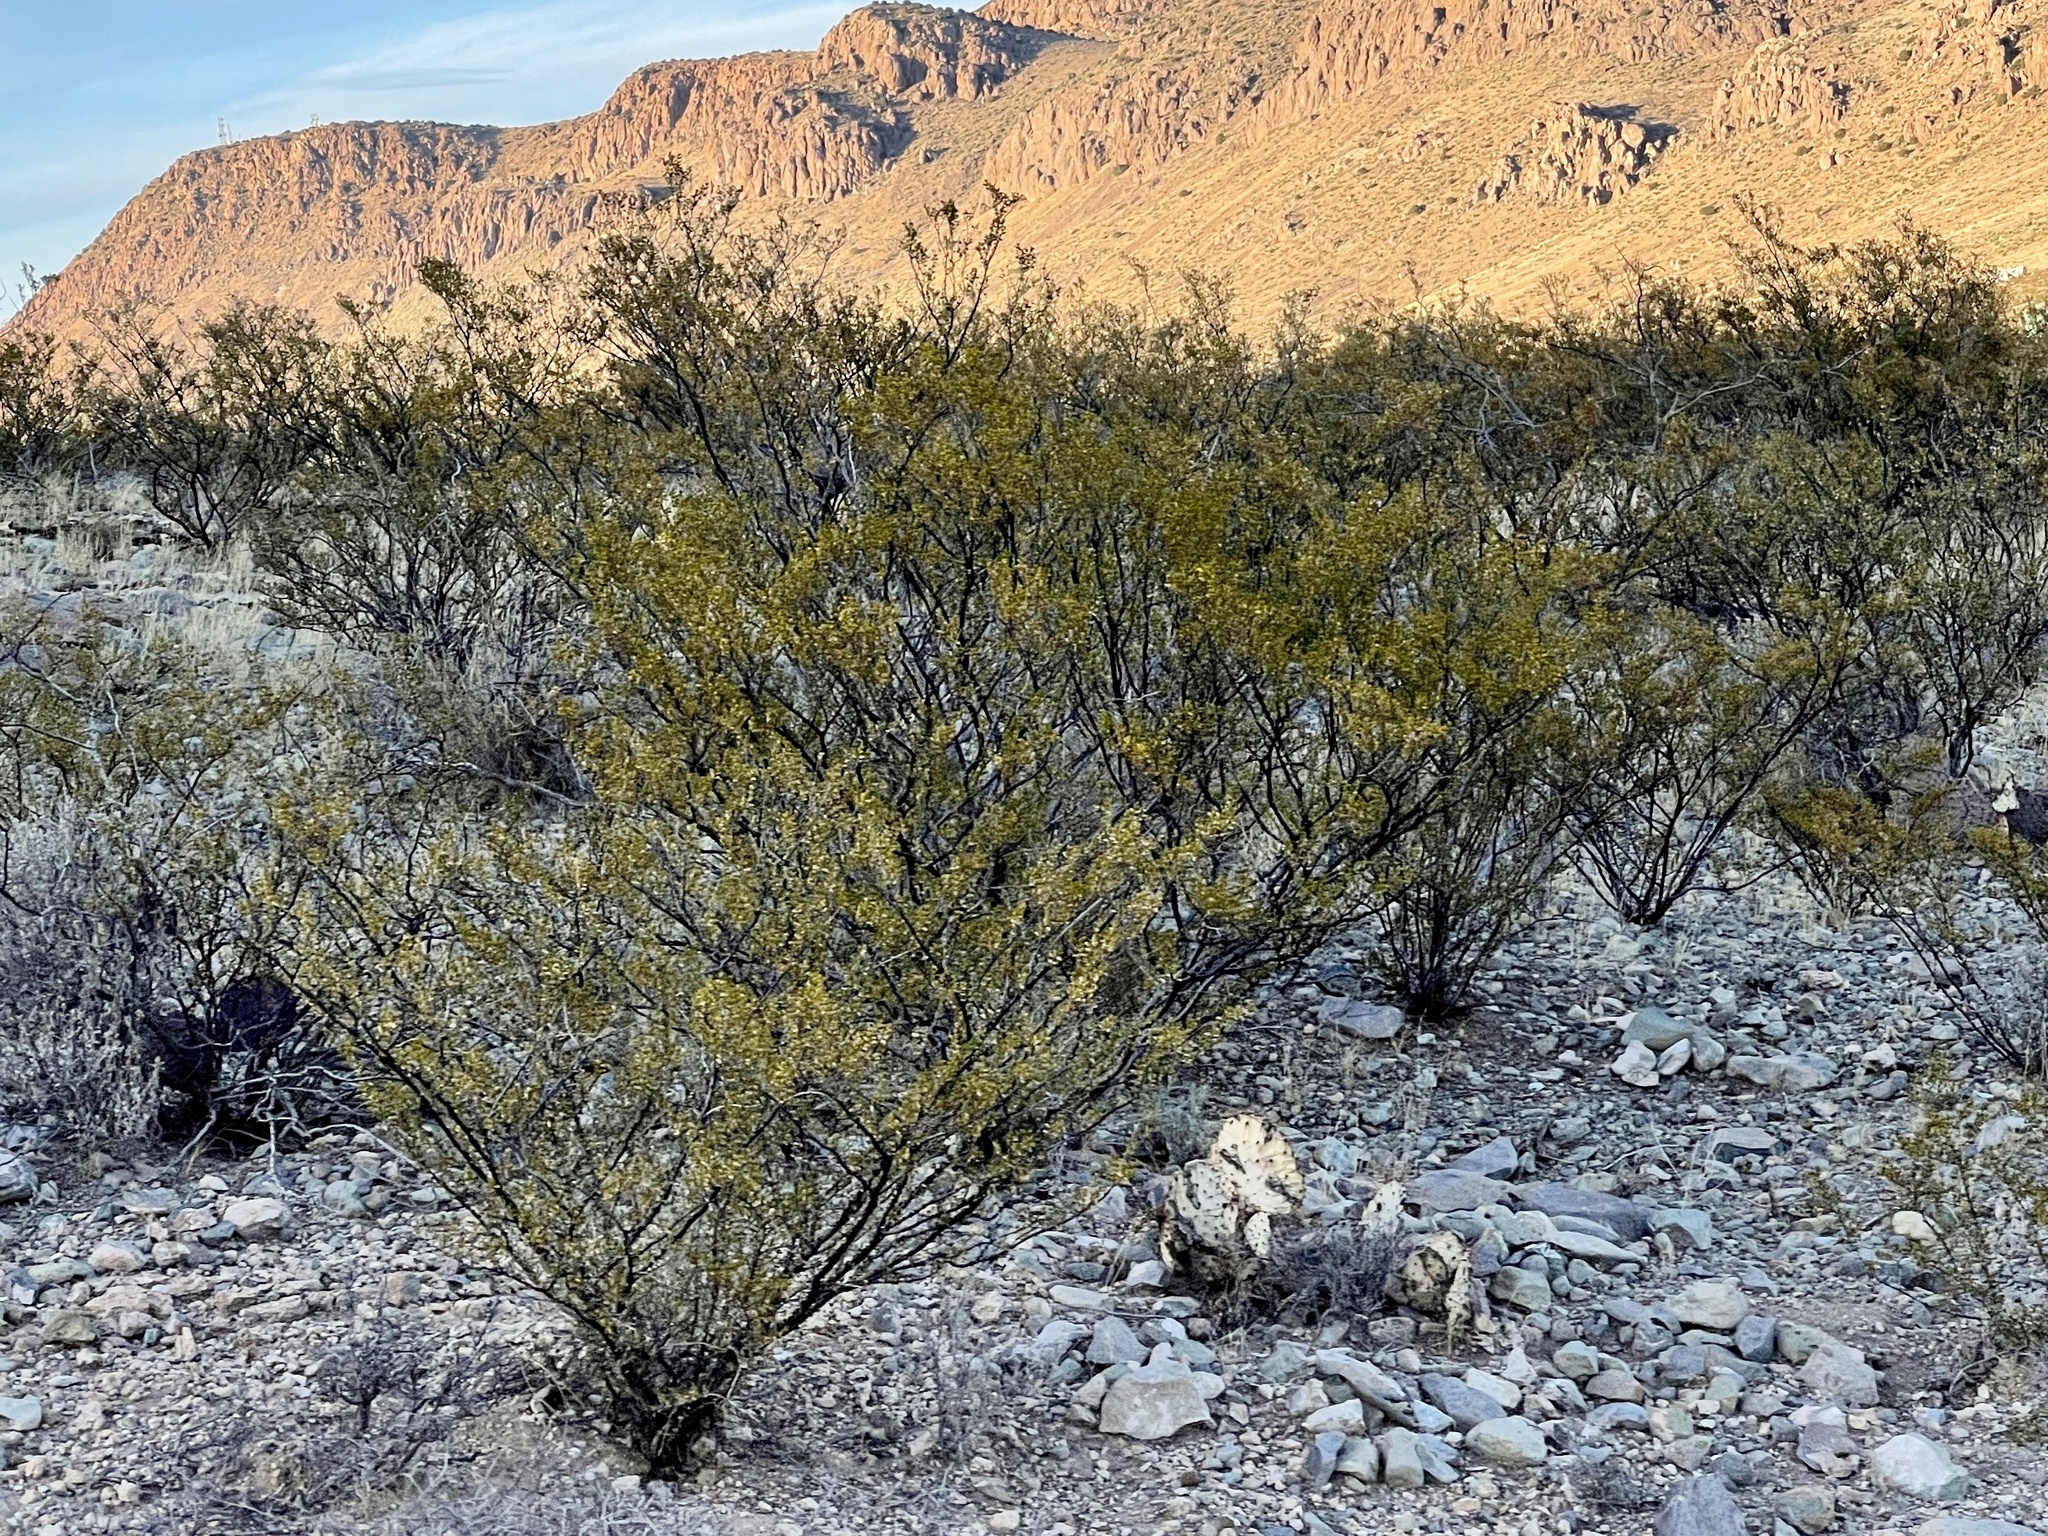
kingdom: Plantae
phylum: Tracheophyta
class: Magnoliopsida
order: Zygophyllales
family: Zygophyllaceae
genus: Larrea
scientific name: Larrea tridentata
